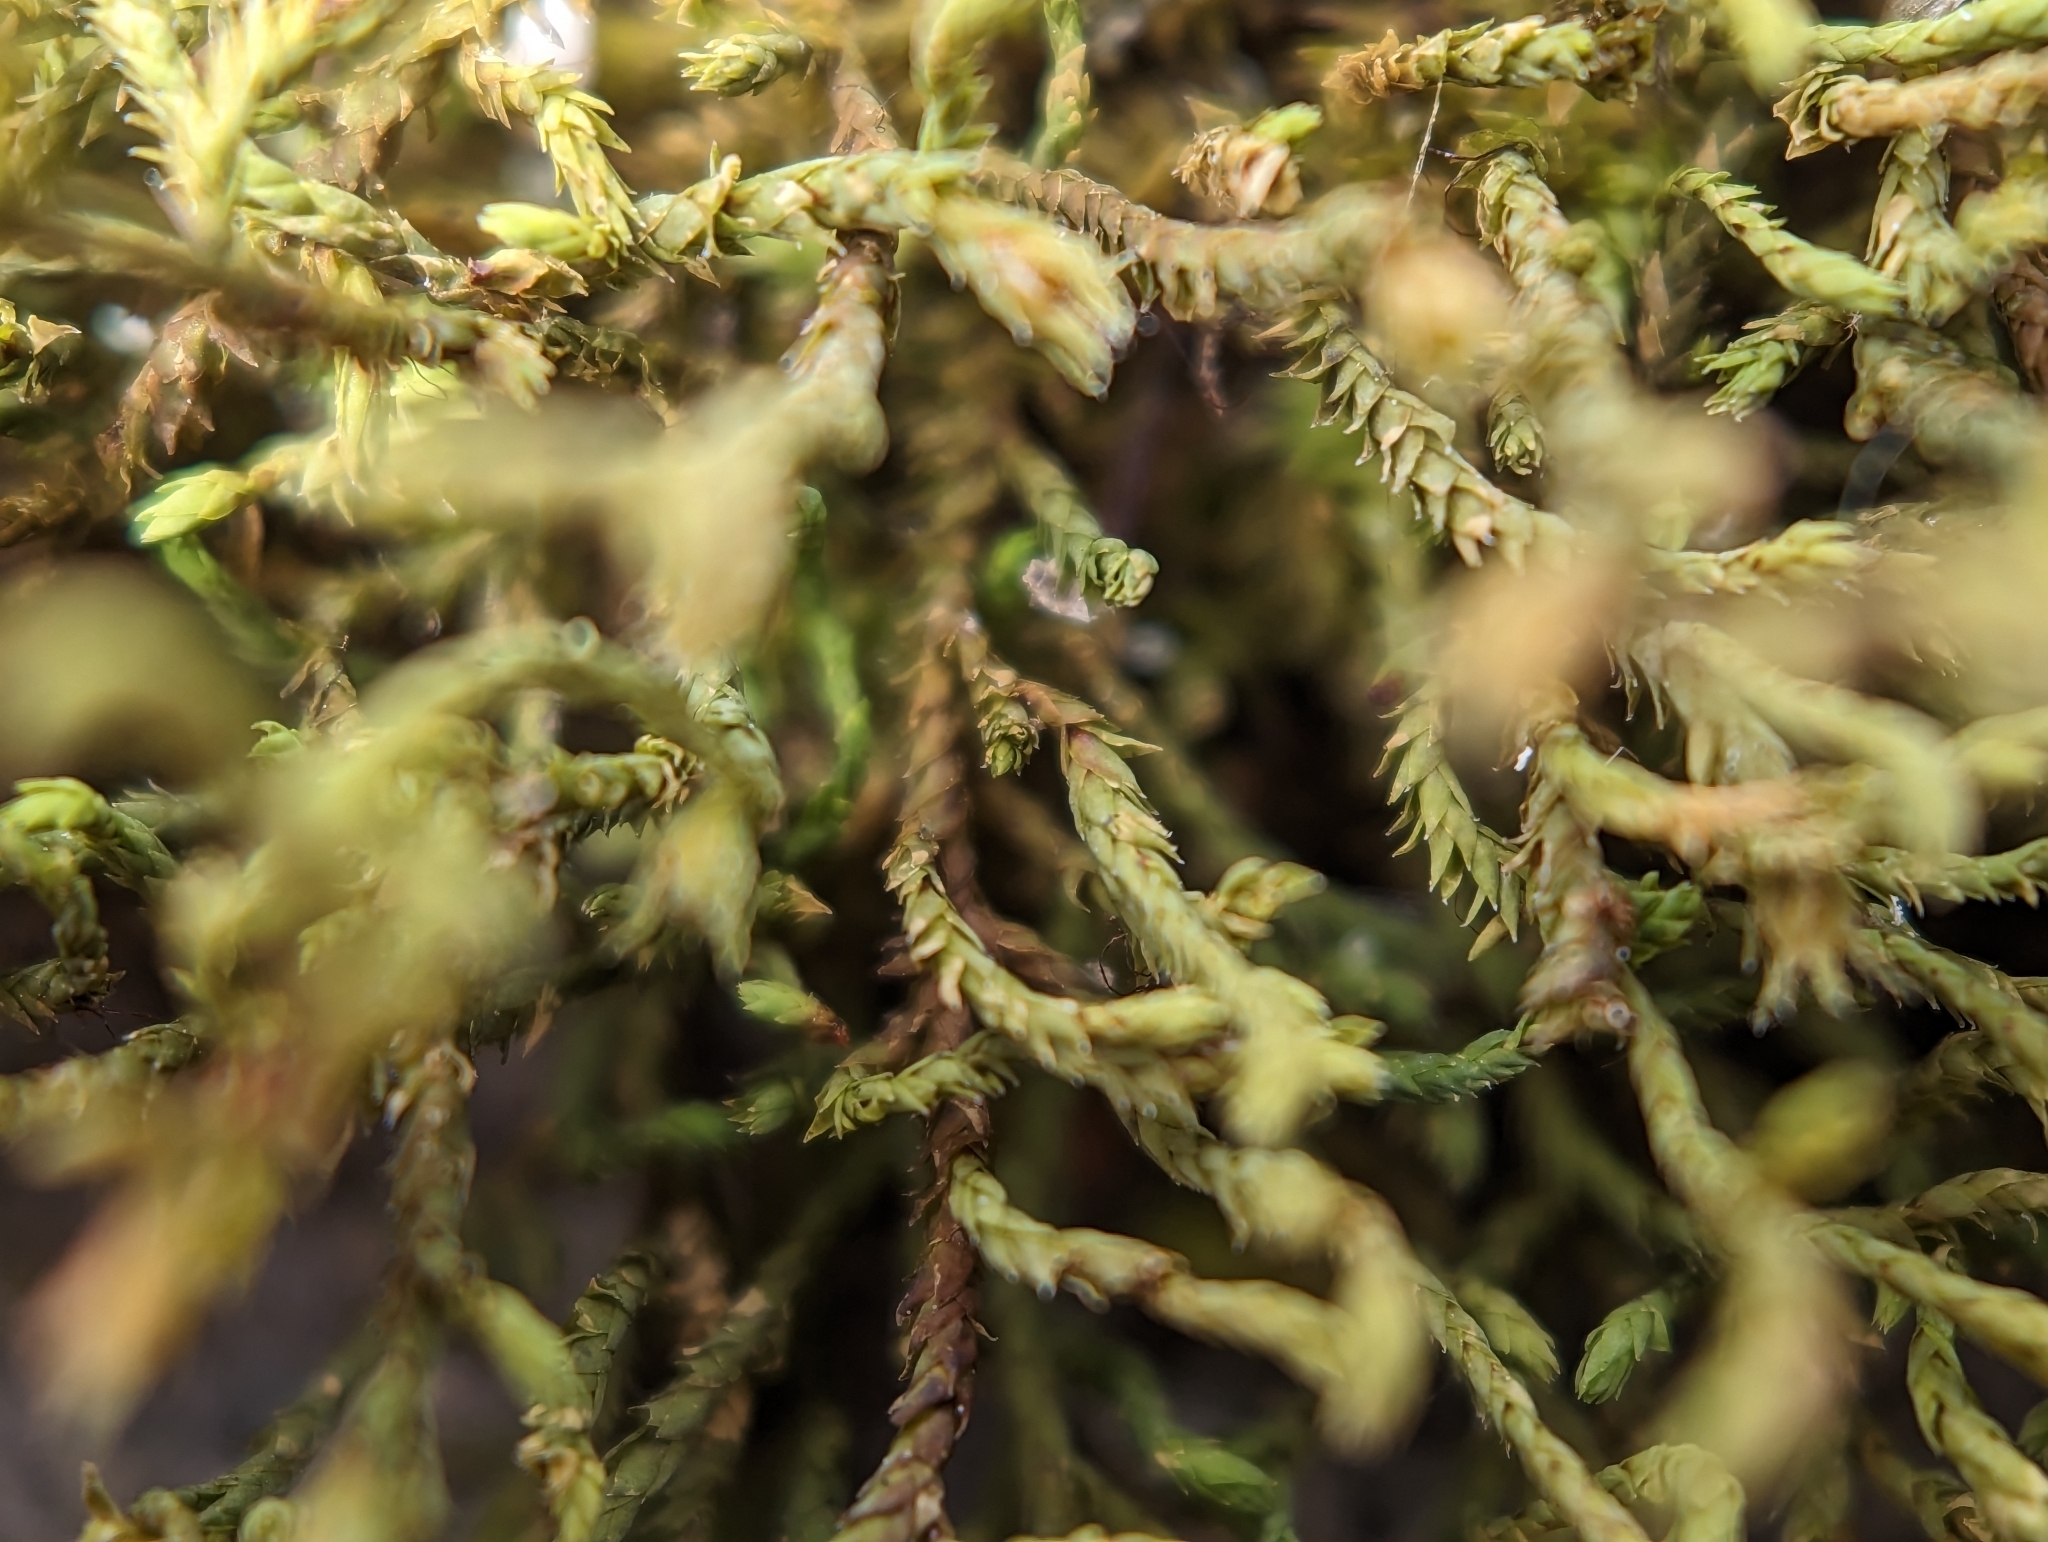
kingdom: Plantae
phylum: Bryophyta
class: Bryopsida
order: Hedwigiales
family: Hedwigiaceae
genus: Hedwigia
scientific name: Hedwigia ciliata
